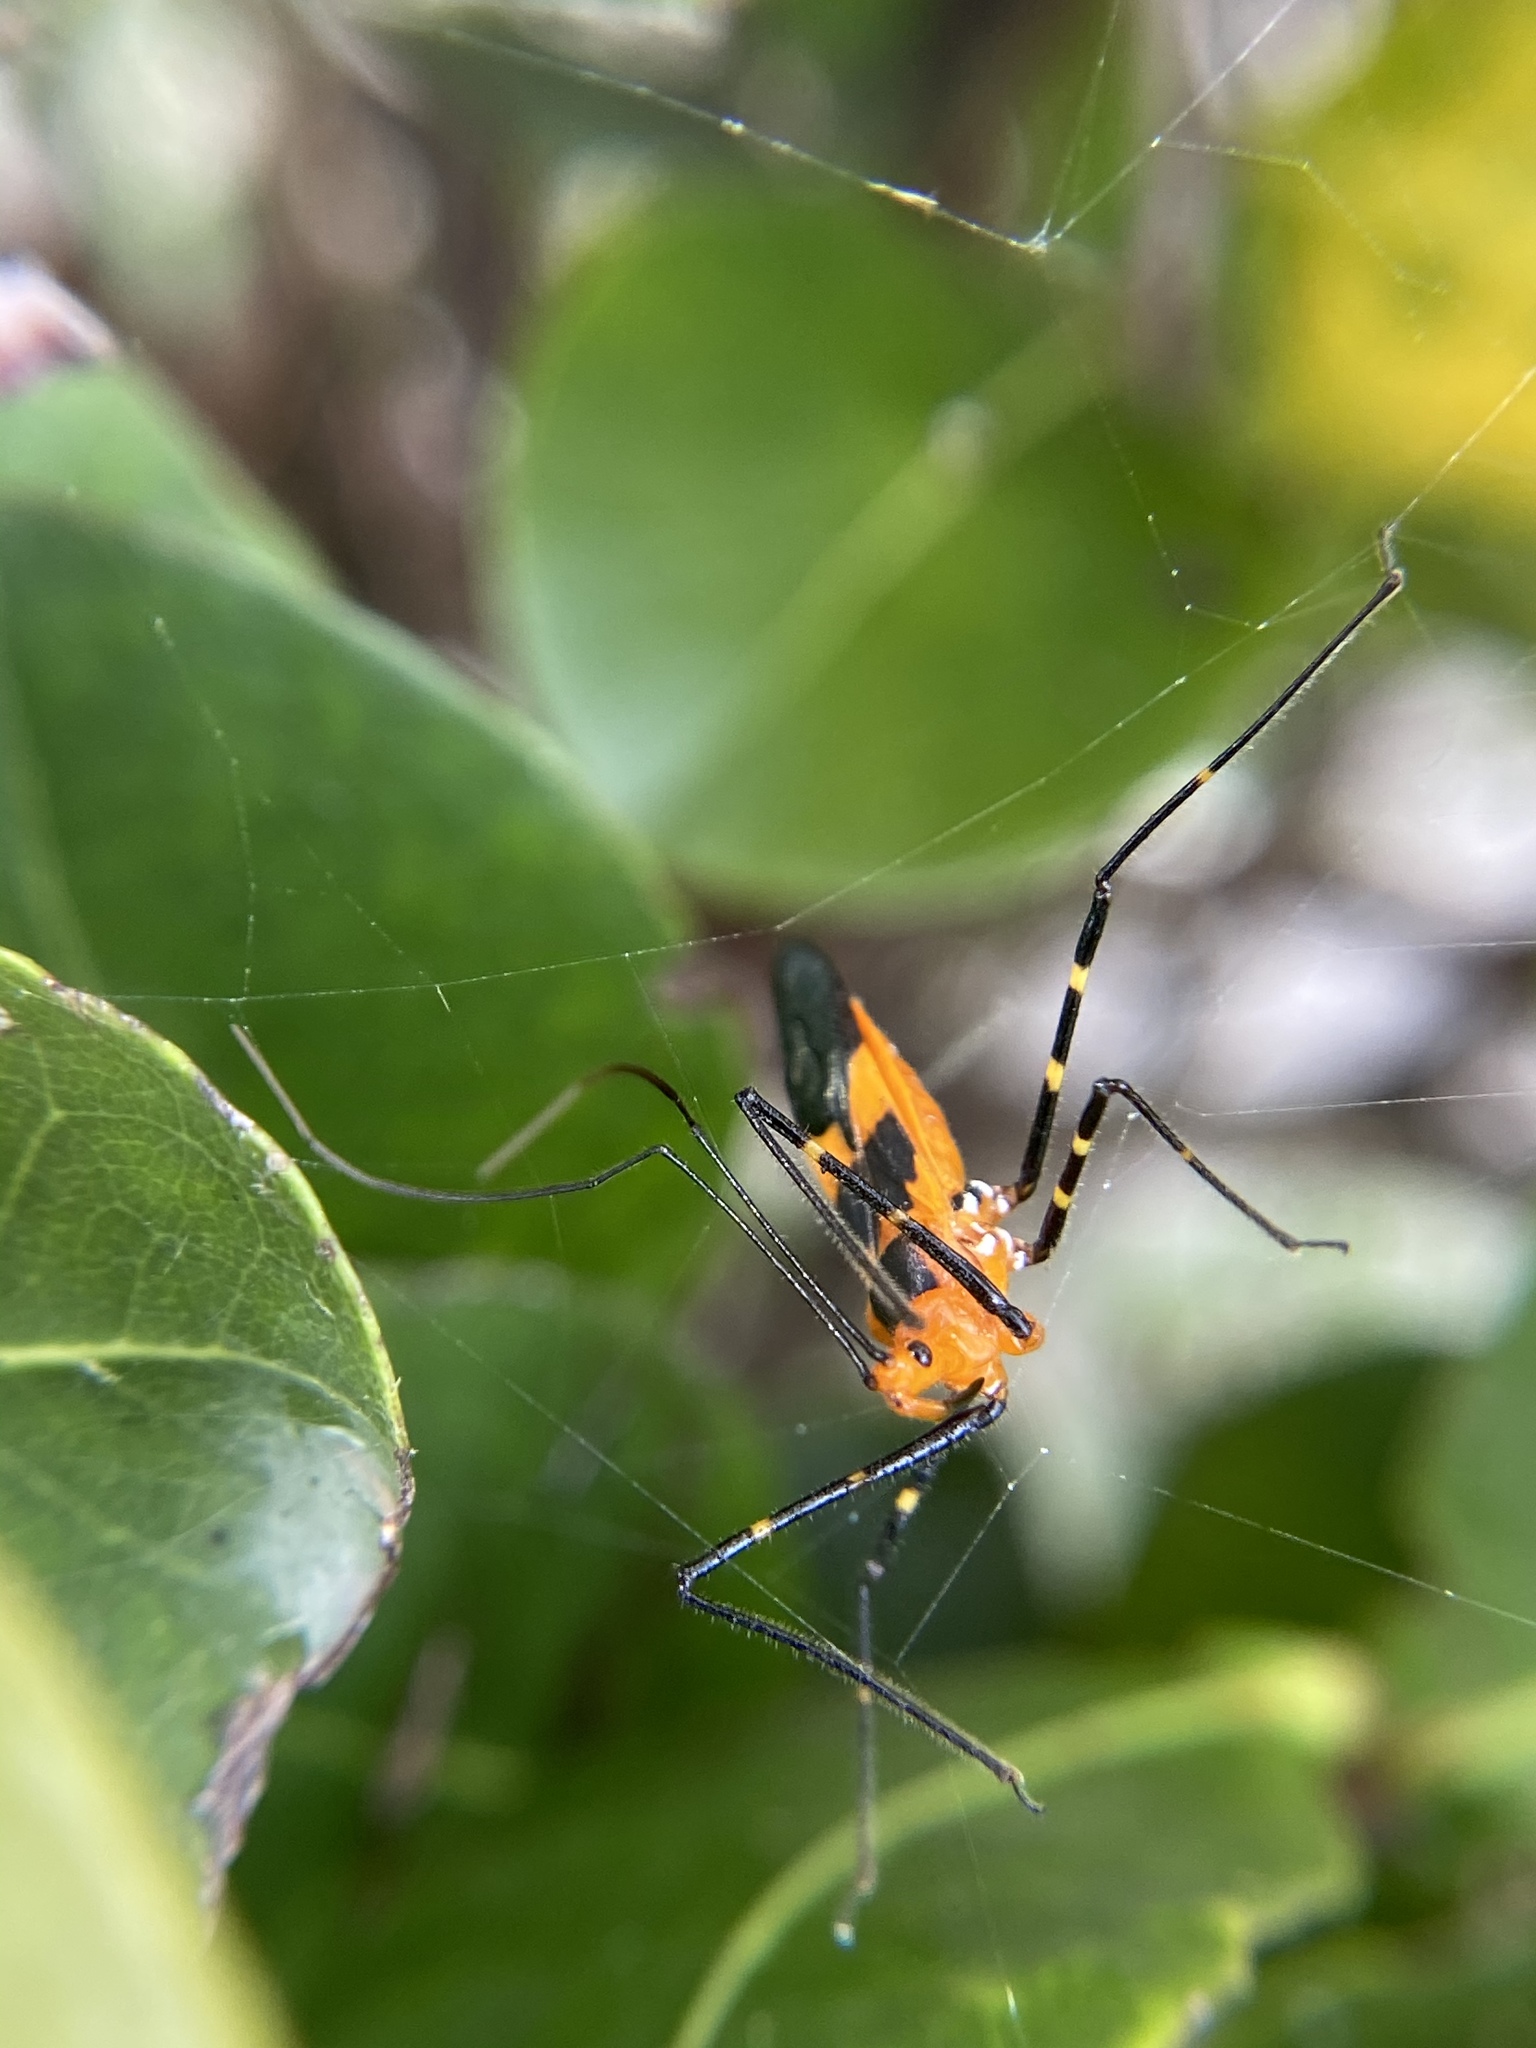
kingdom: Animalia
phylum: Arthropoda
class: Insecta
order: Hemiptera
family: Reduviidae
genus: Zelus
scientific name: Zelus longipes
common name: Milkweed assassin bug
